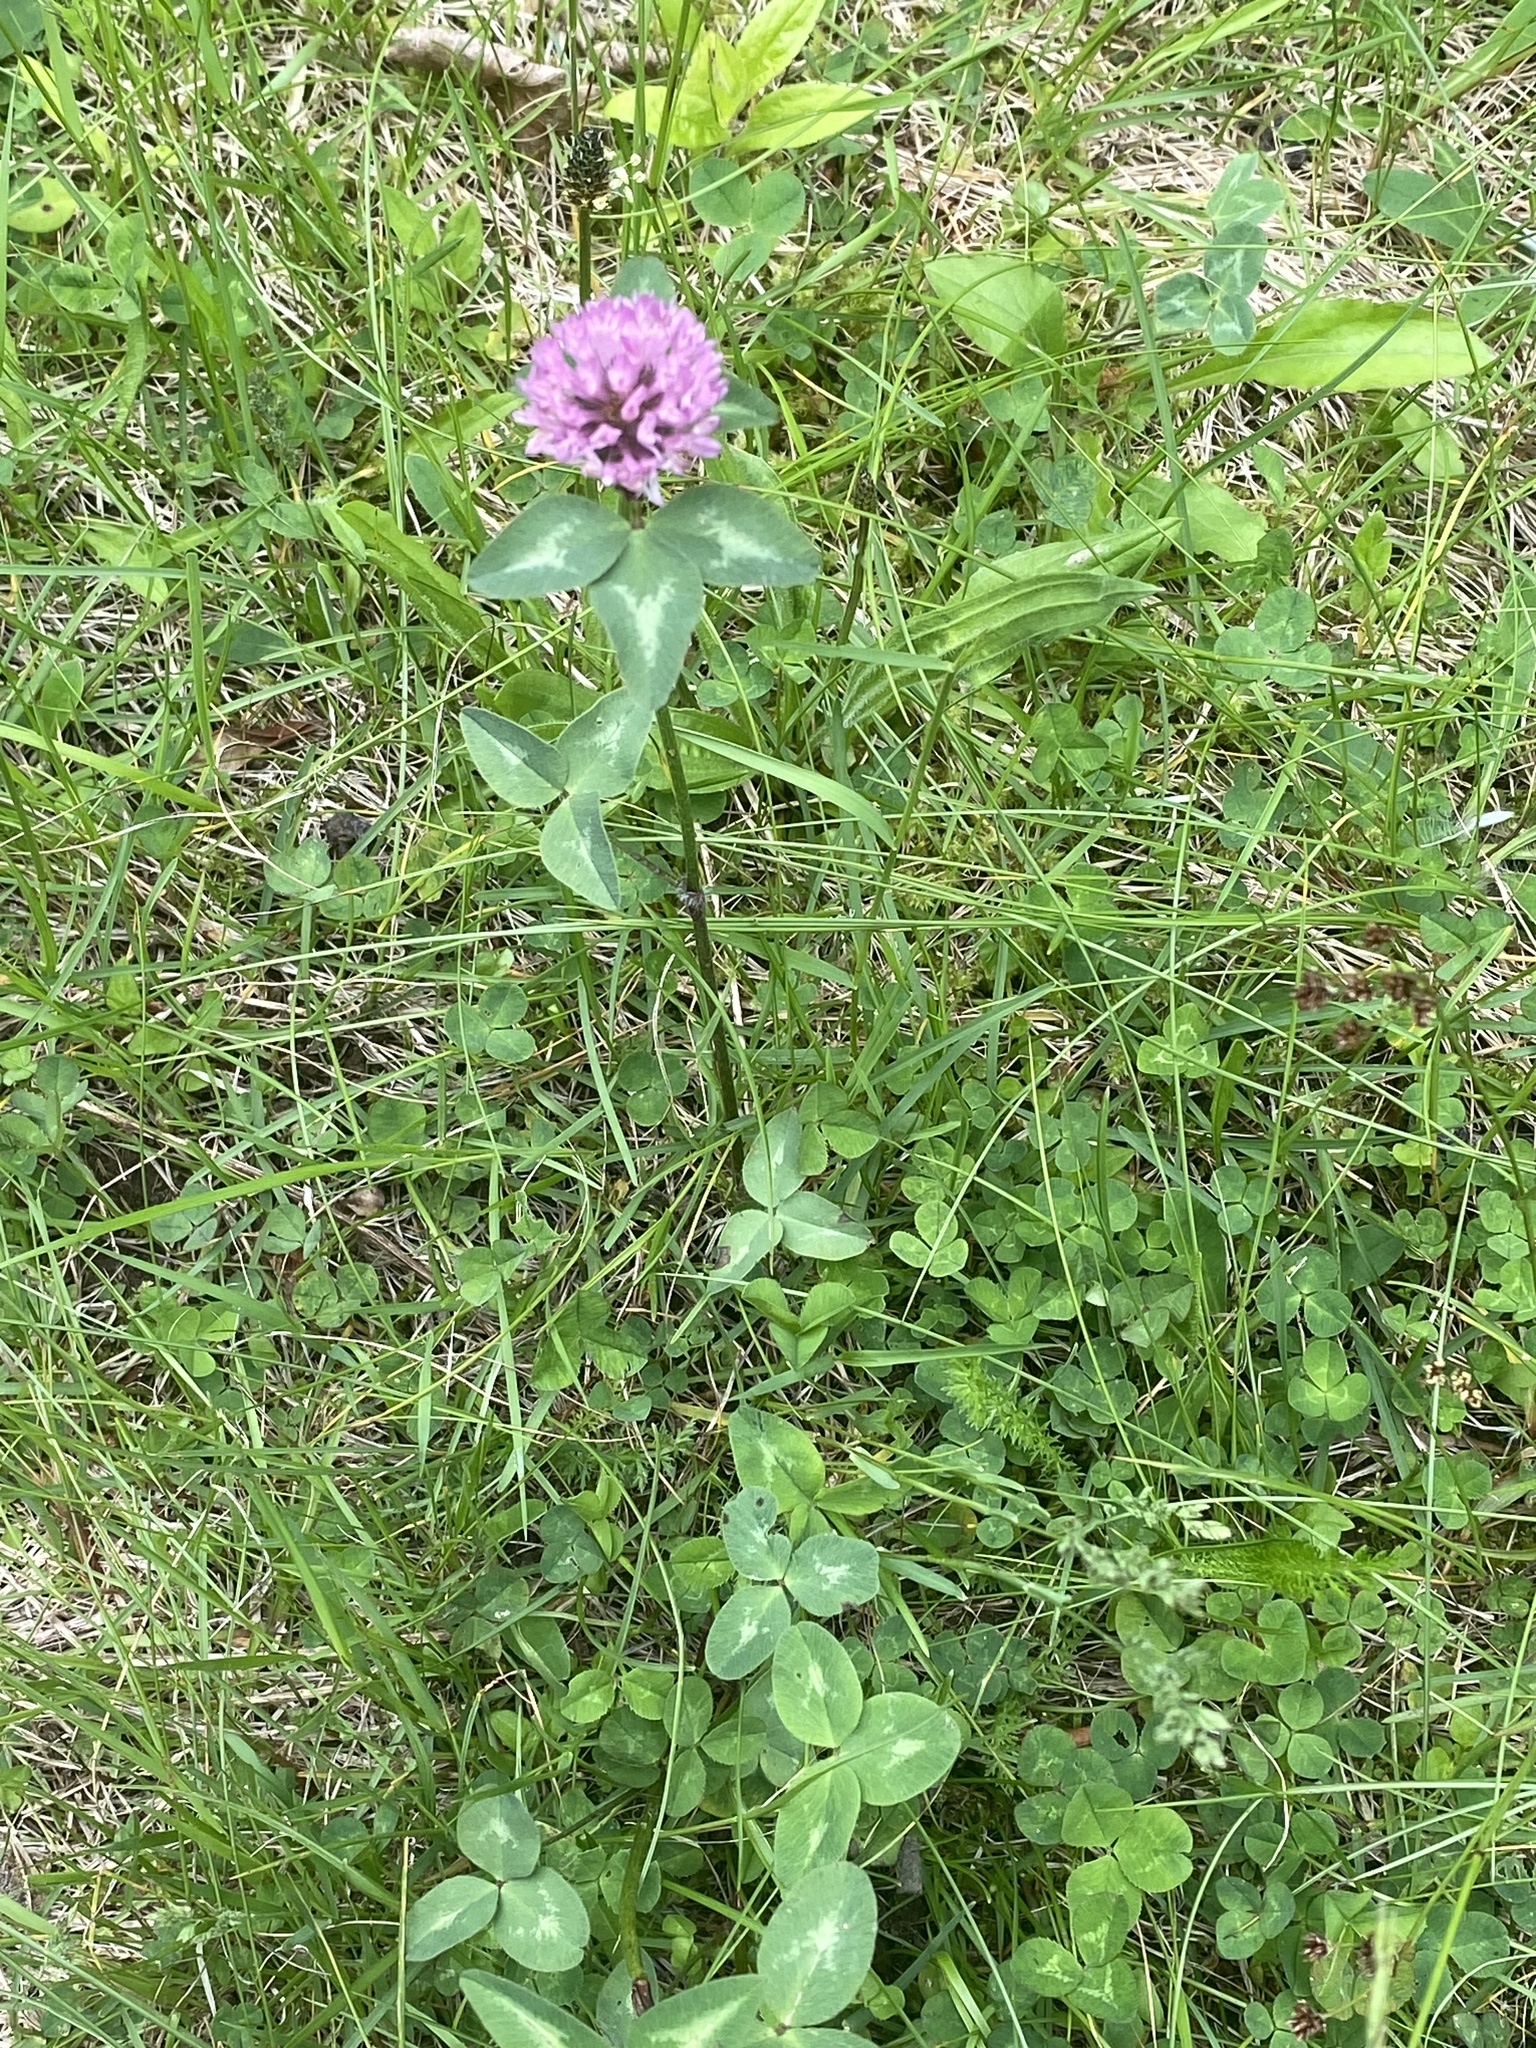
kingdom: Plantae
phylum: Tracheophyta
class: Magnoliopsida
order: Fabales
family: Fabaceae
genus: Trifolium
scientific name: Trifolium pratense
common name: Red clover
